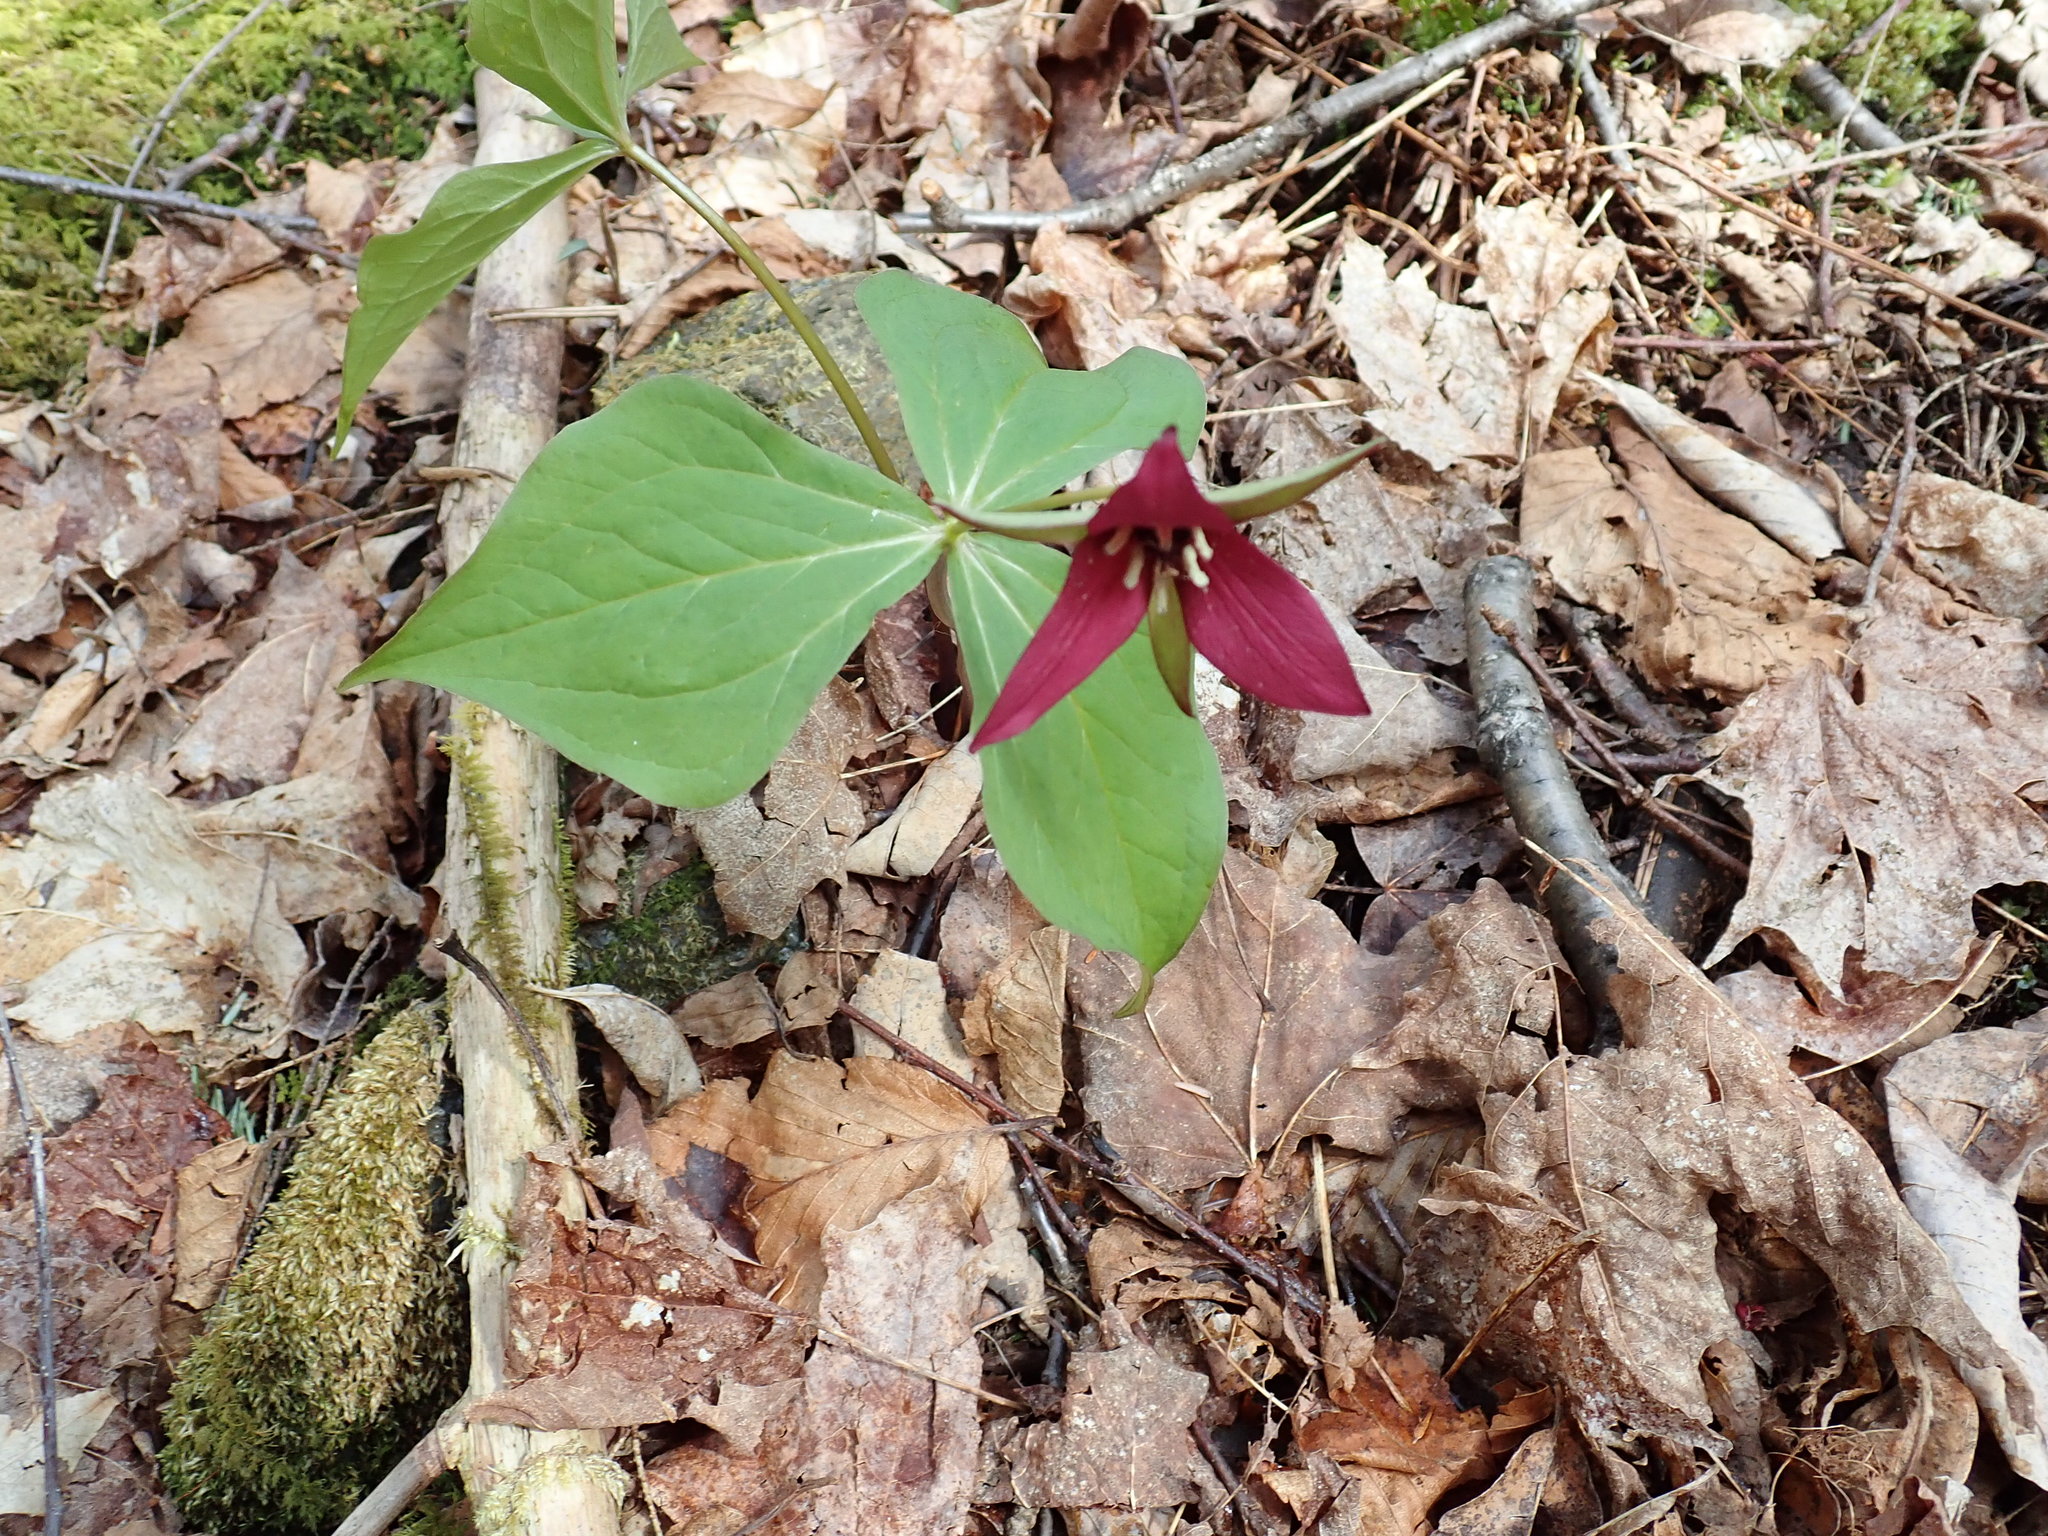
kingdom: Plantae
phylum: Tracheophyta
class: Liliopsida
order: Liliales
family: Melanthiaceae
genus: Trillium
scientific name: Trillium erectum
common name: Purple trillium
